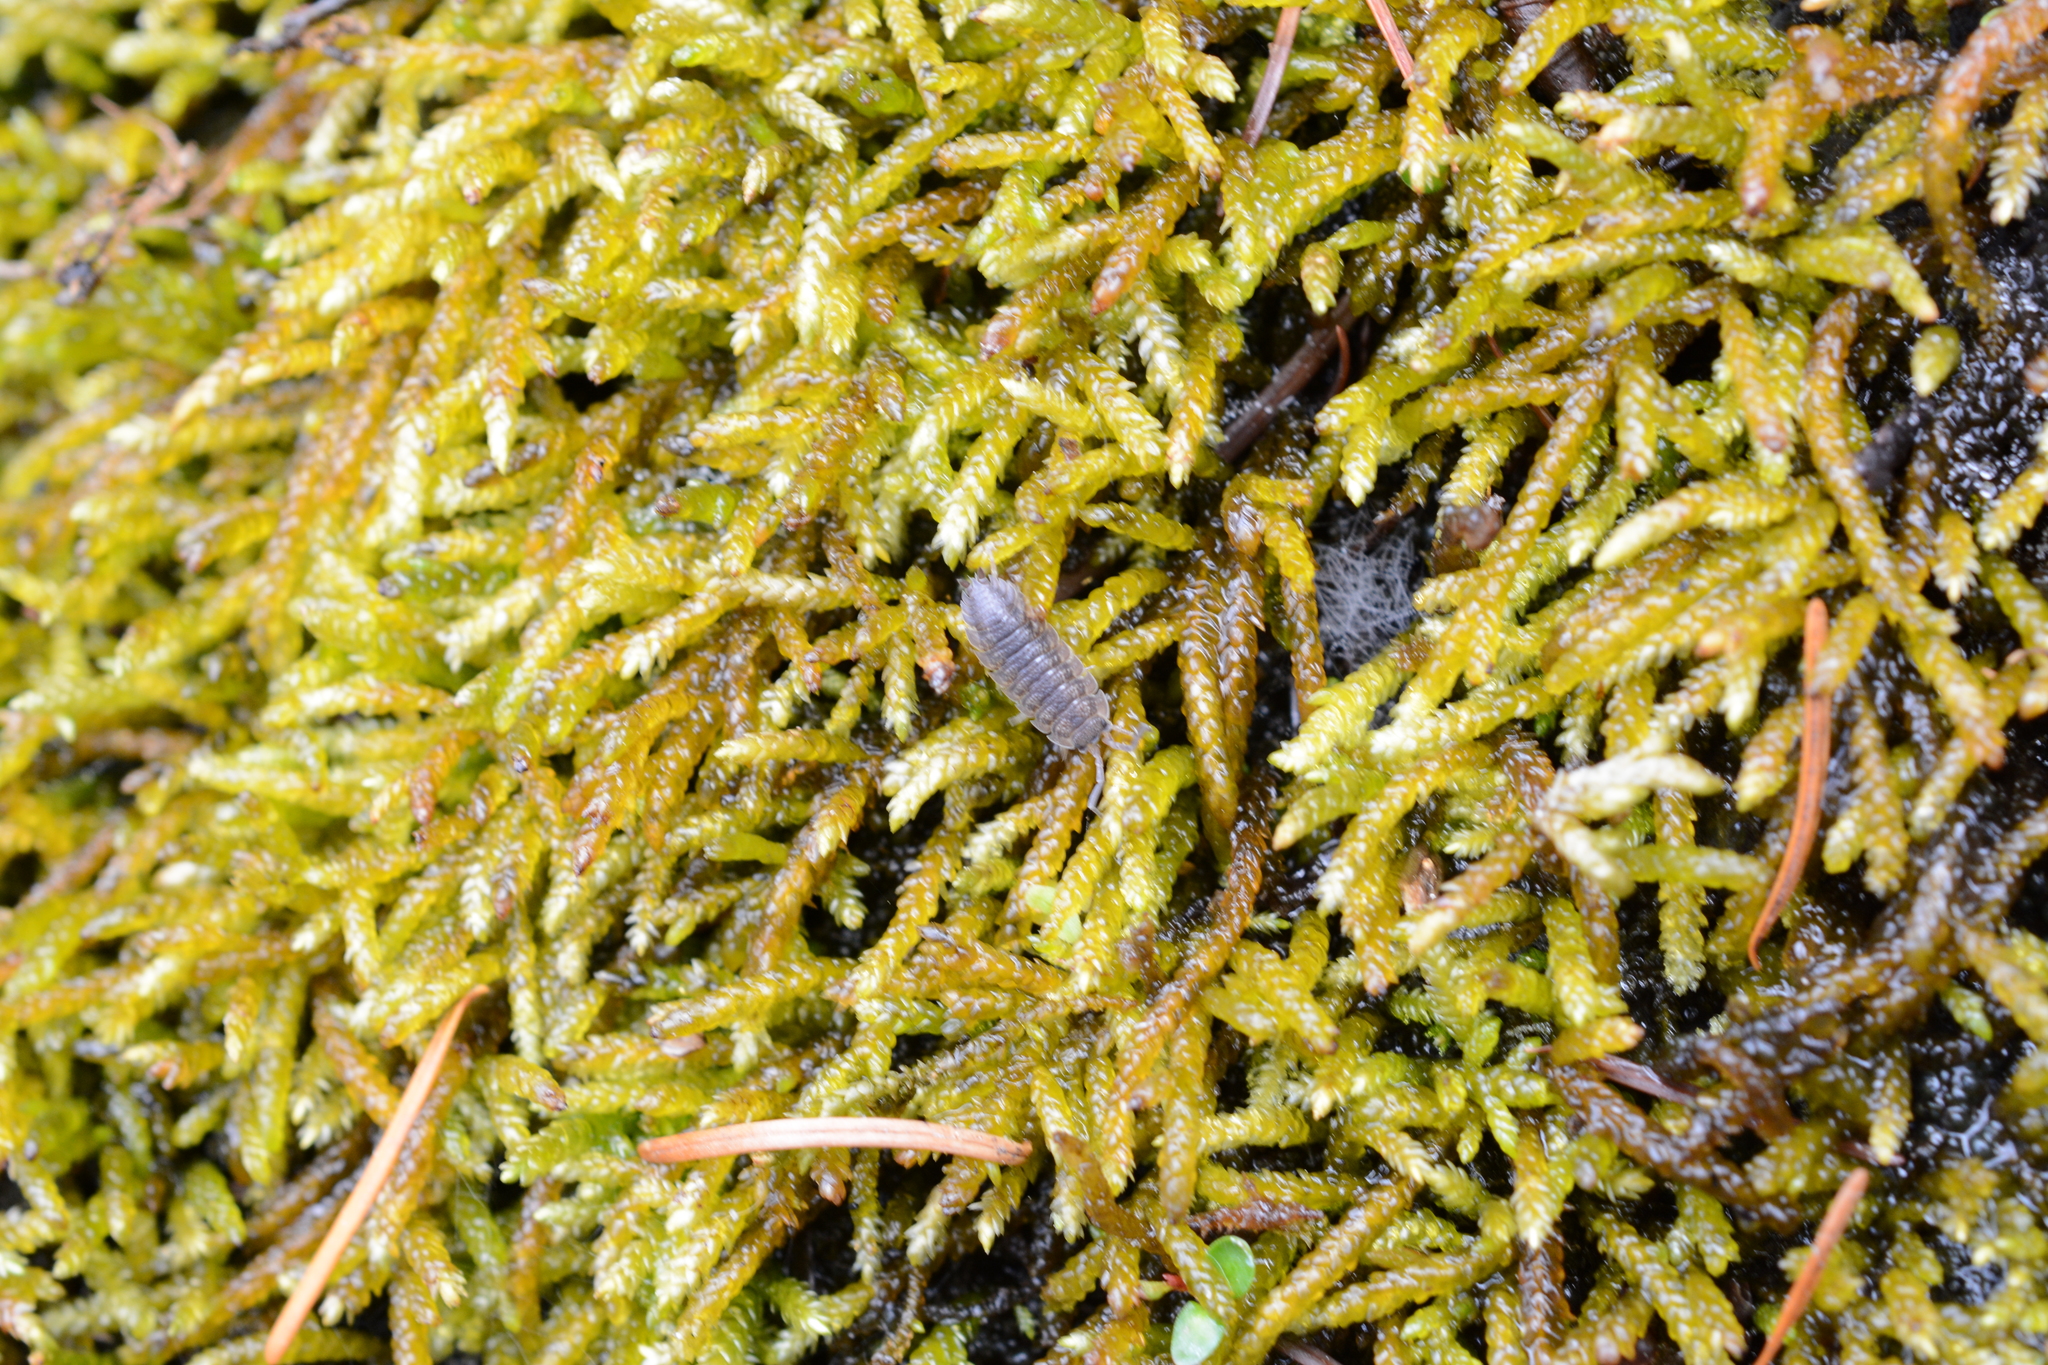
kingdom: Animalia
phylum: Arthropoda
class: Malacostraca
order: Isopoda
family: Porcellionidae
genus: Porcellio
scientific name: Porcellio scaber
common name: Common rough woodlouse
